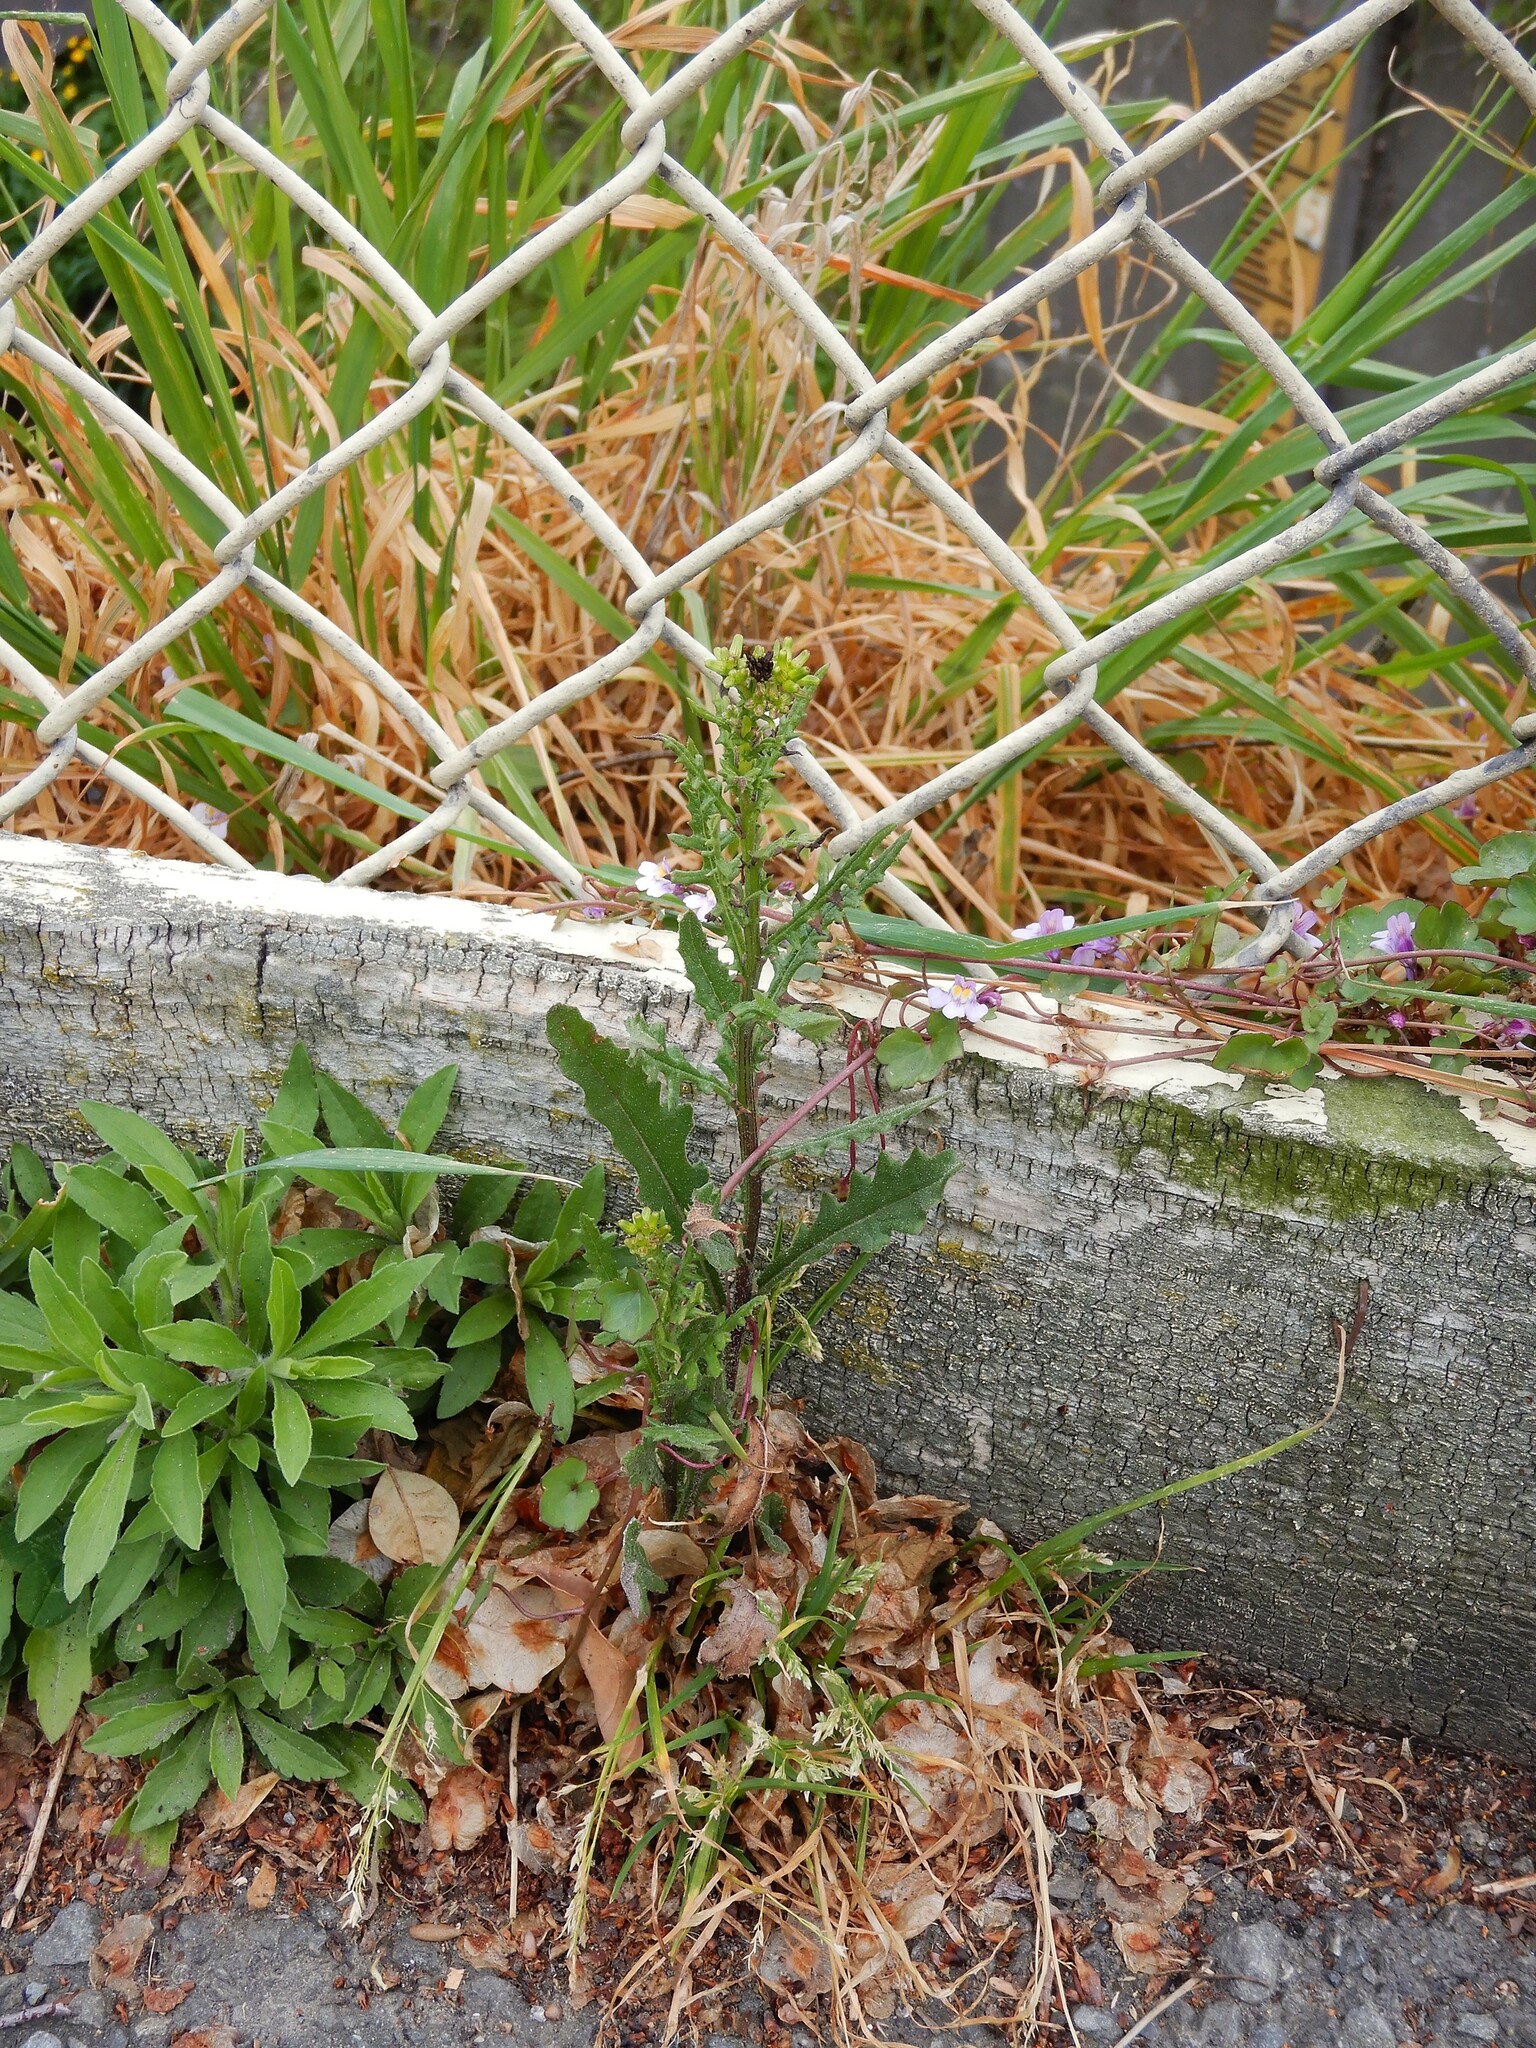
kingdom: Plantae
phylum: Tracheophyta
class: Magnoliopsida
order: Asterales
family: Asteraceae
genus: Senecio
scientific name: Senecio hispidulus
